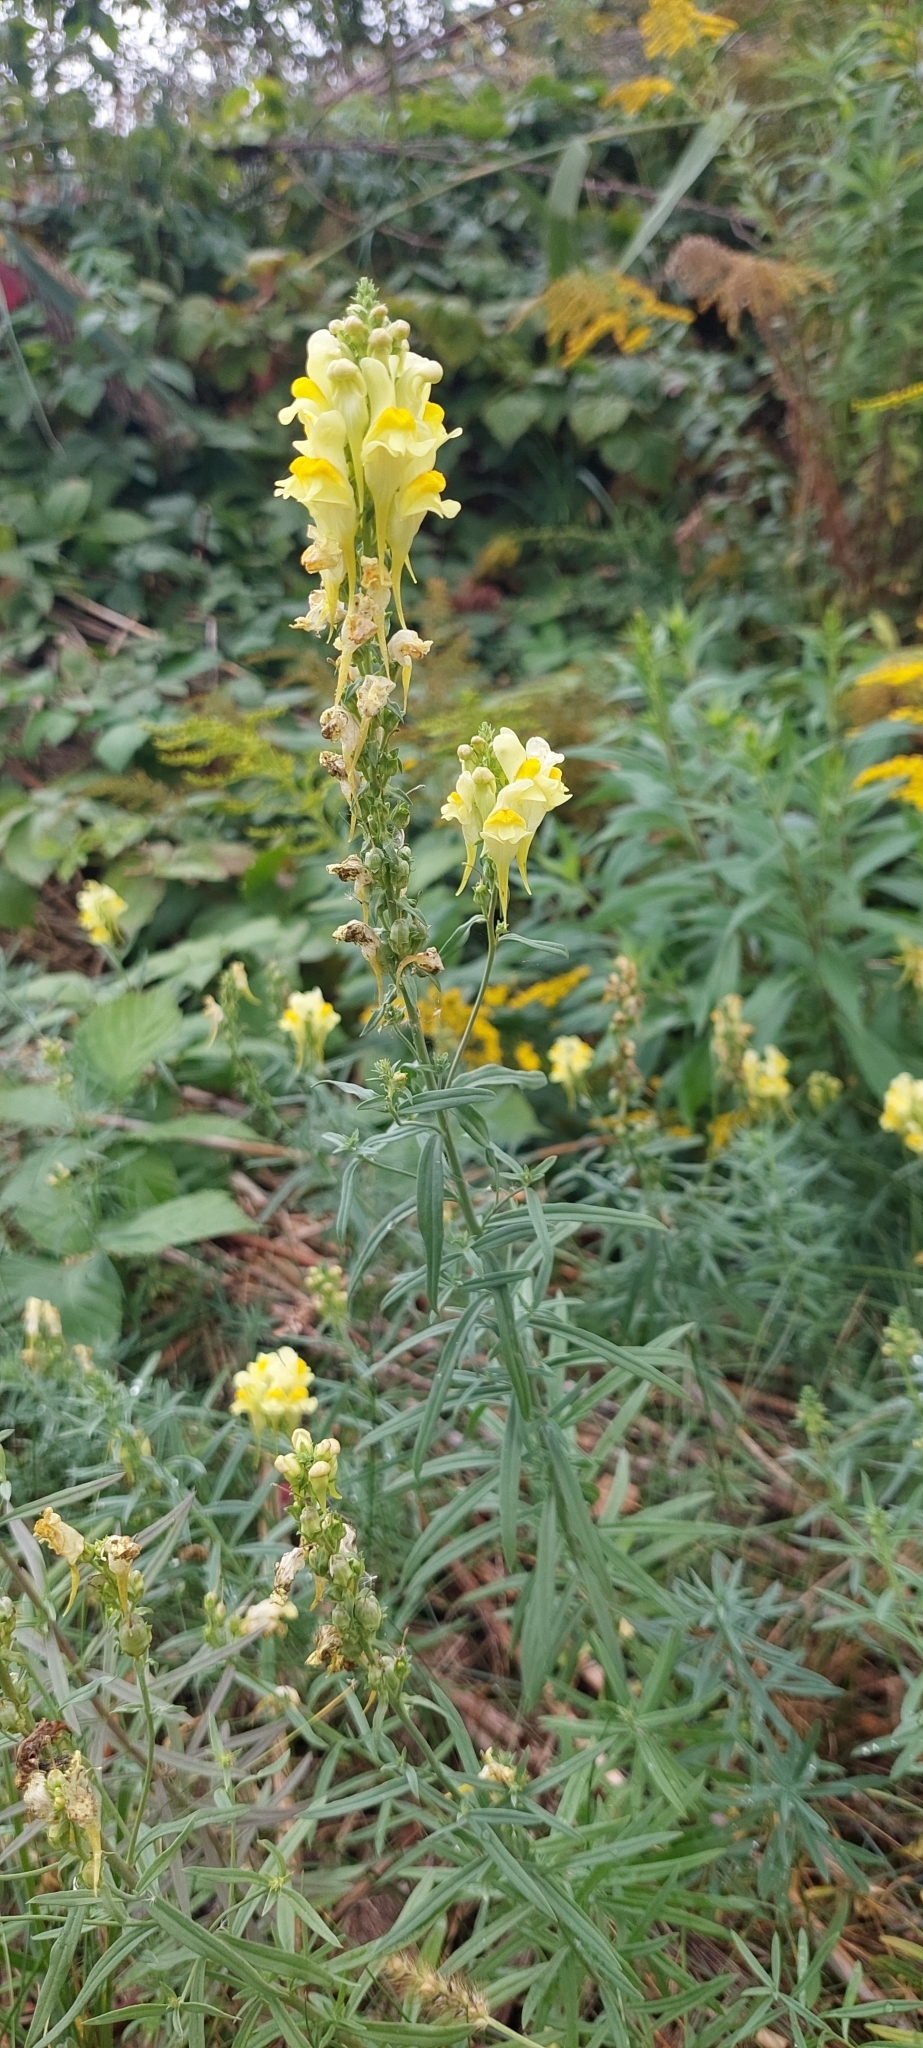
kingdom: Plantae
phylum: Tracheophyta
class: Magnoliopsida
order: Lamiales
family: Plantaginaceae
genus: Linaria
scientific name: Linaria vulgaris
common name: Butter and eggs
